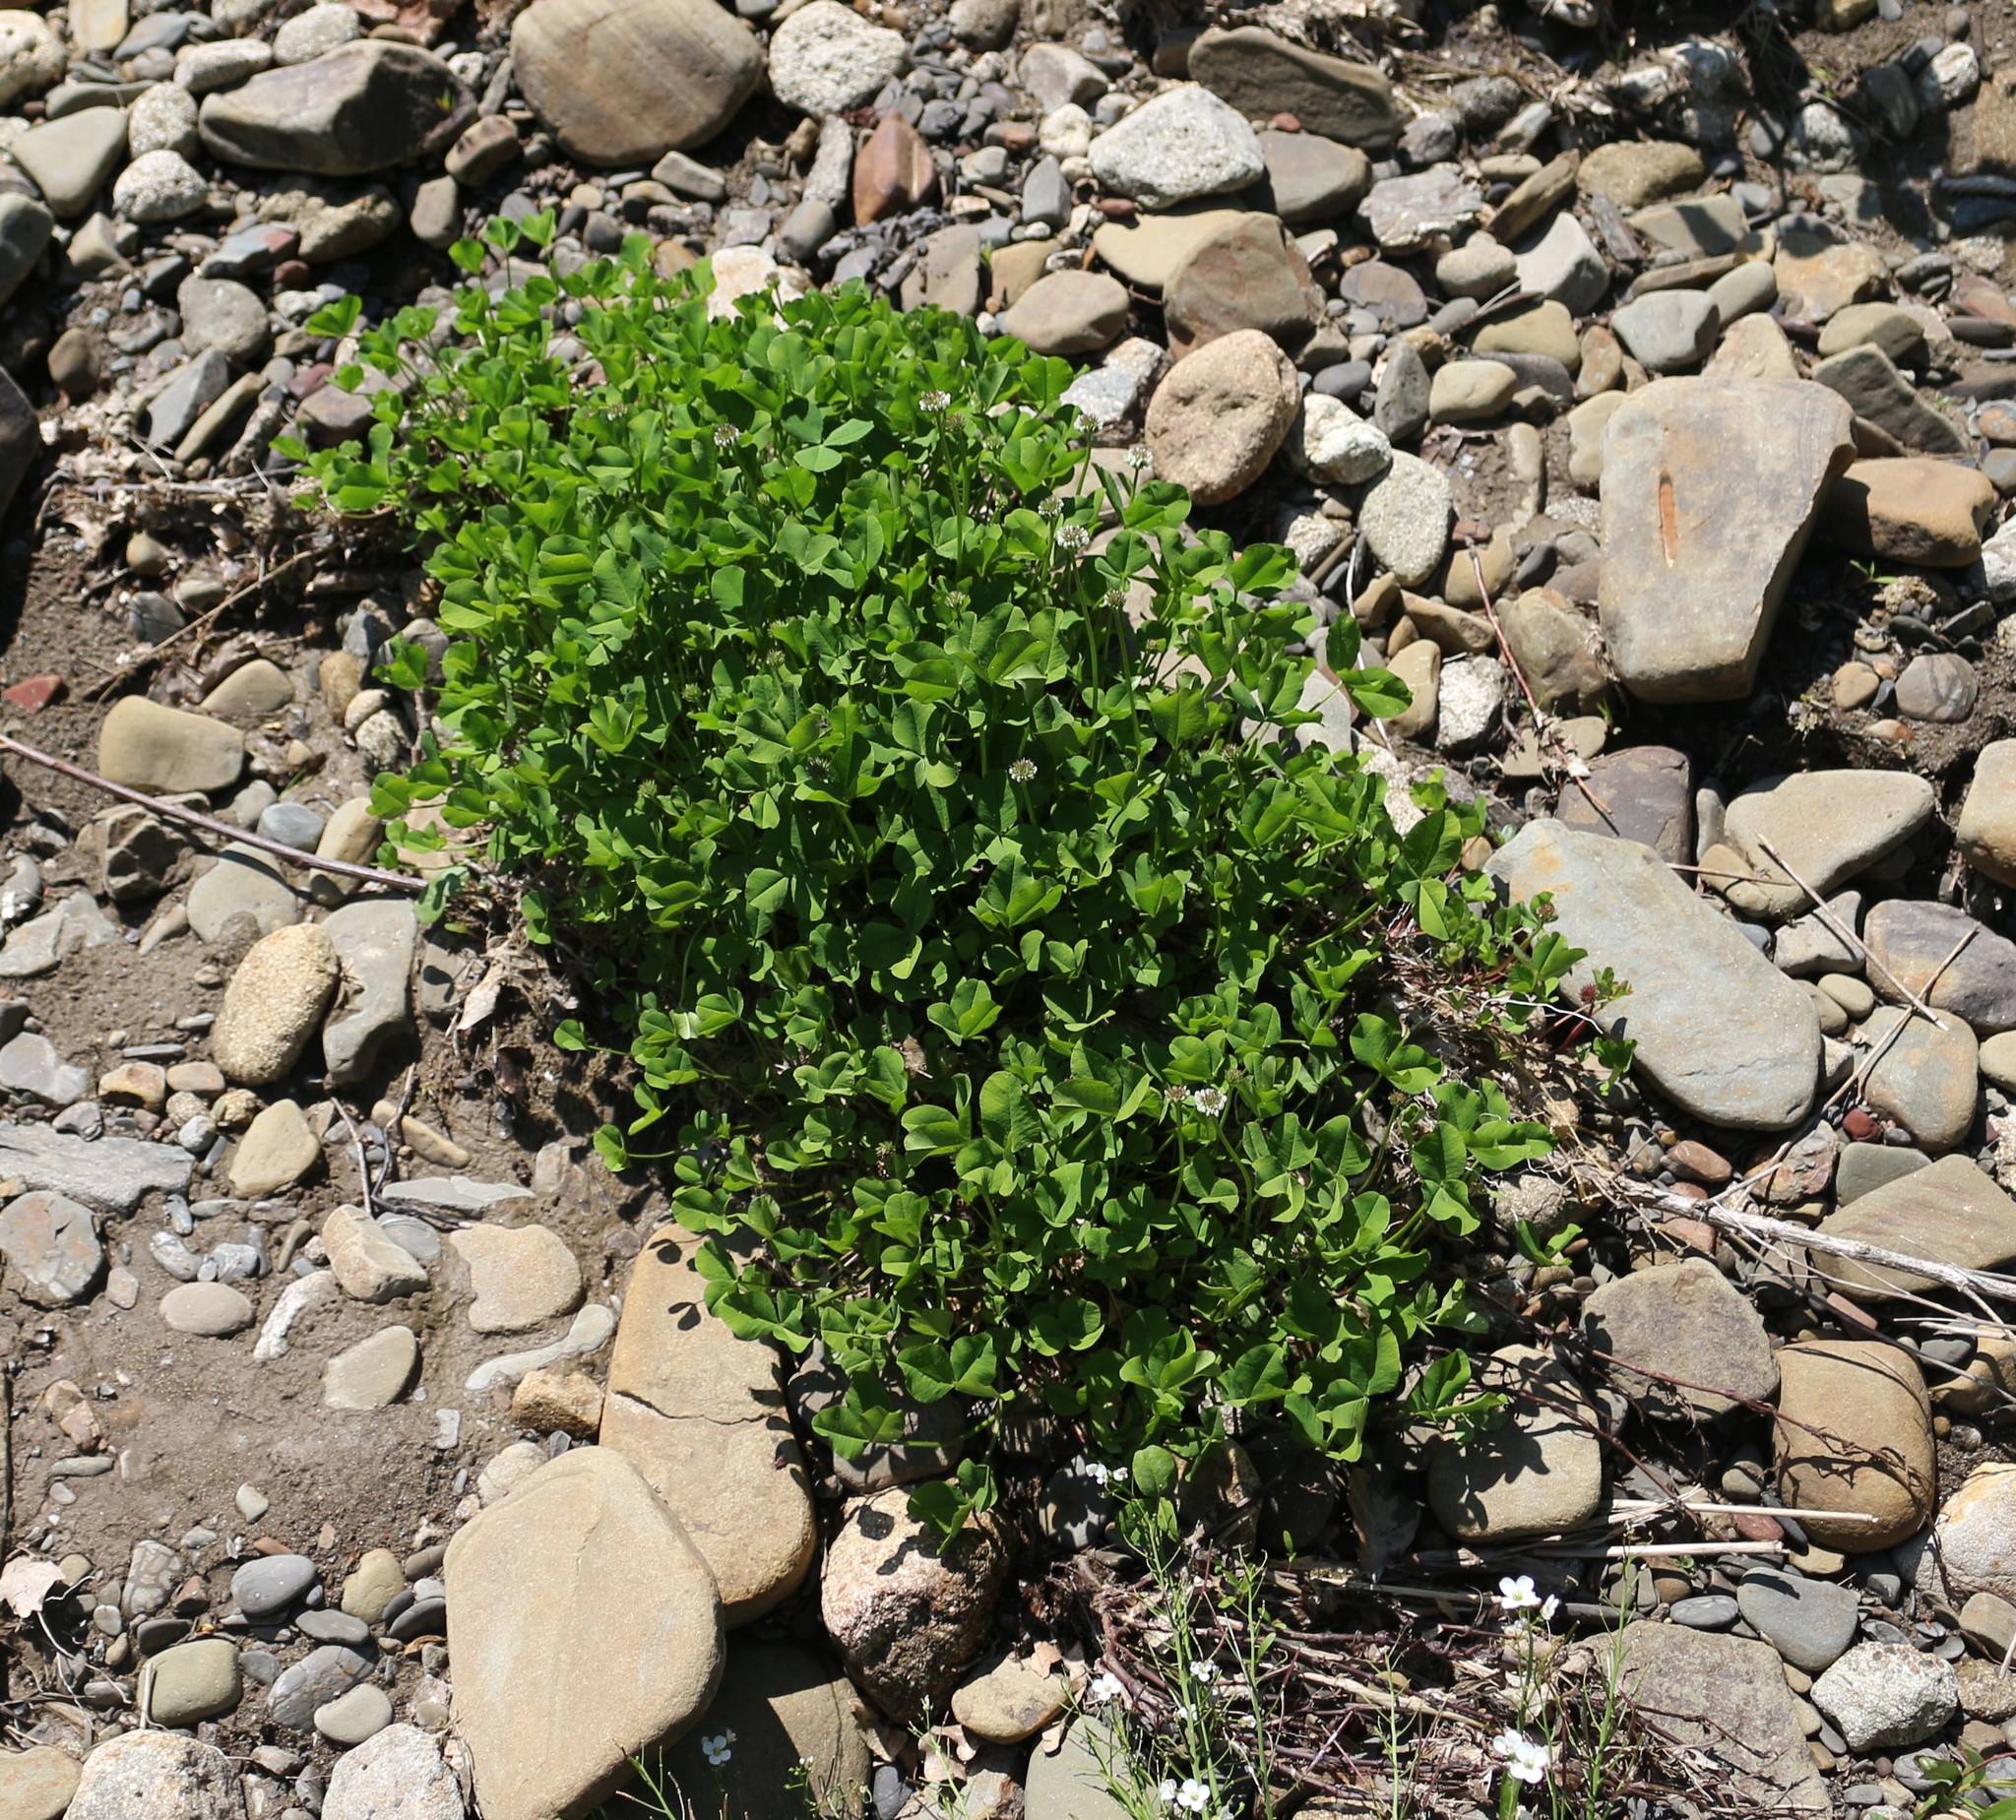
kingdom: Plantae
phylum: Tracheophyta
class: Magnoliopsida
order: Fabales
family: Fabaceae
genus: Trifolium
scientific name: Trifolium repens
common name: White clover
